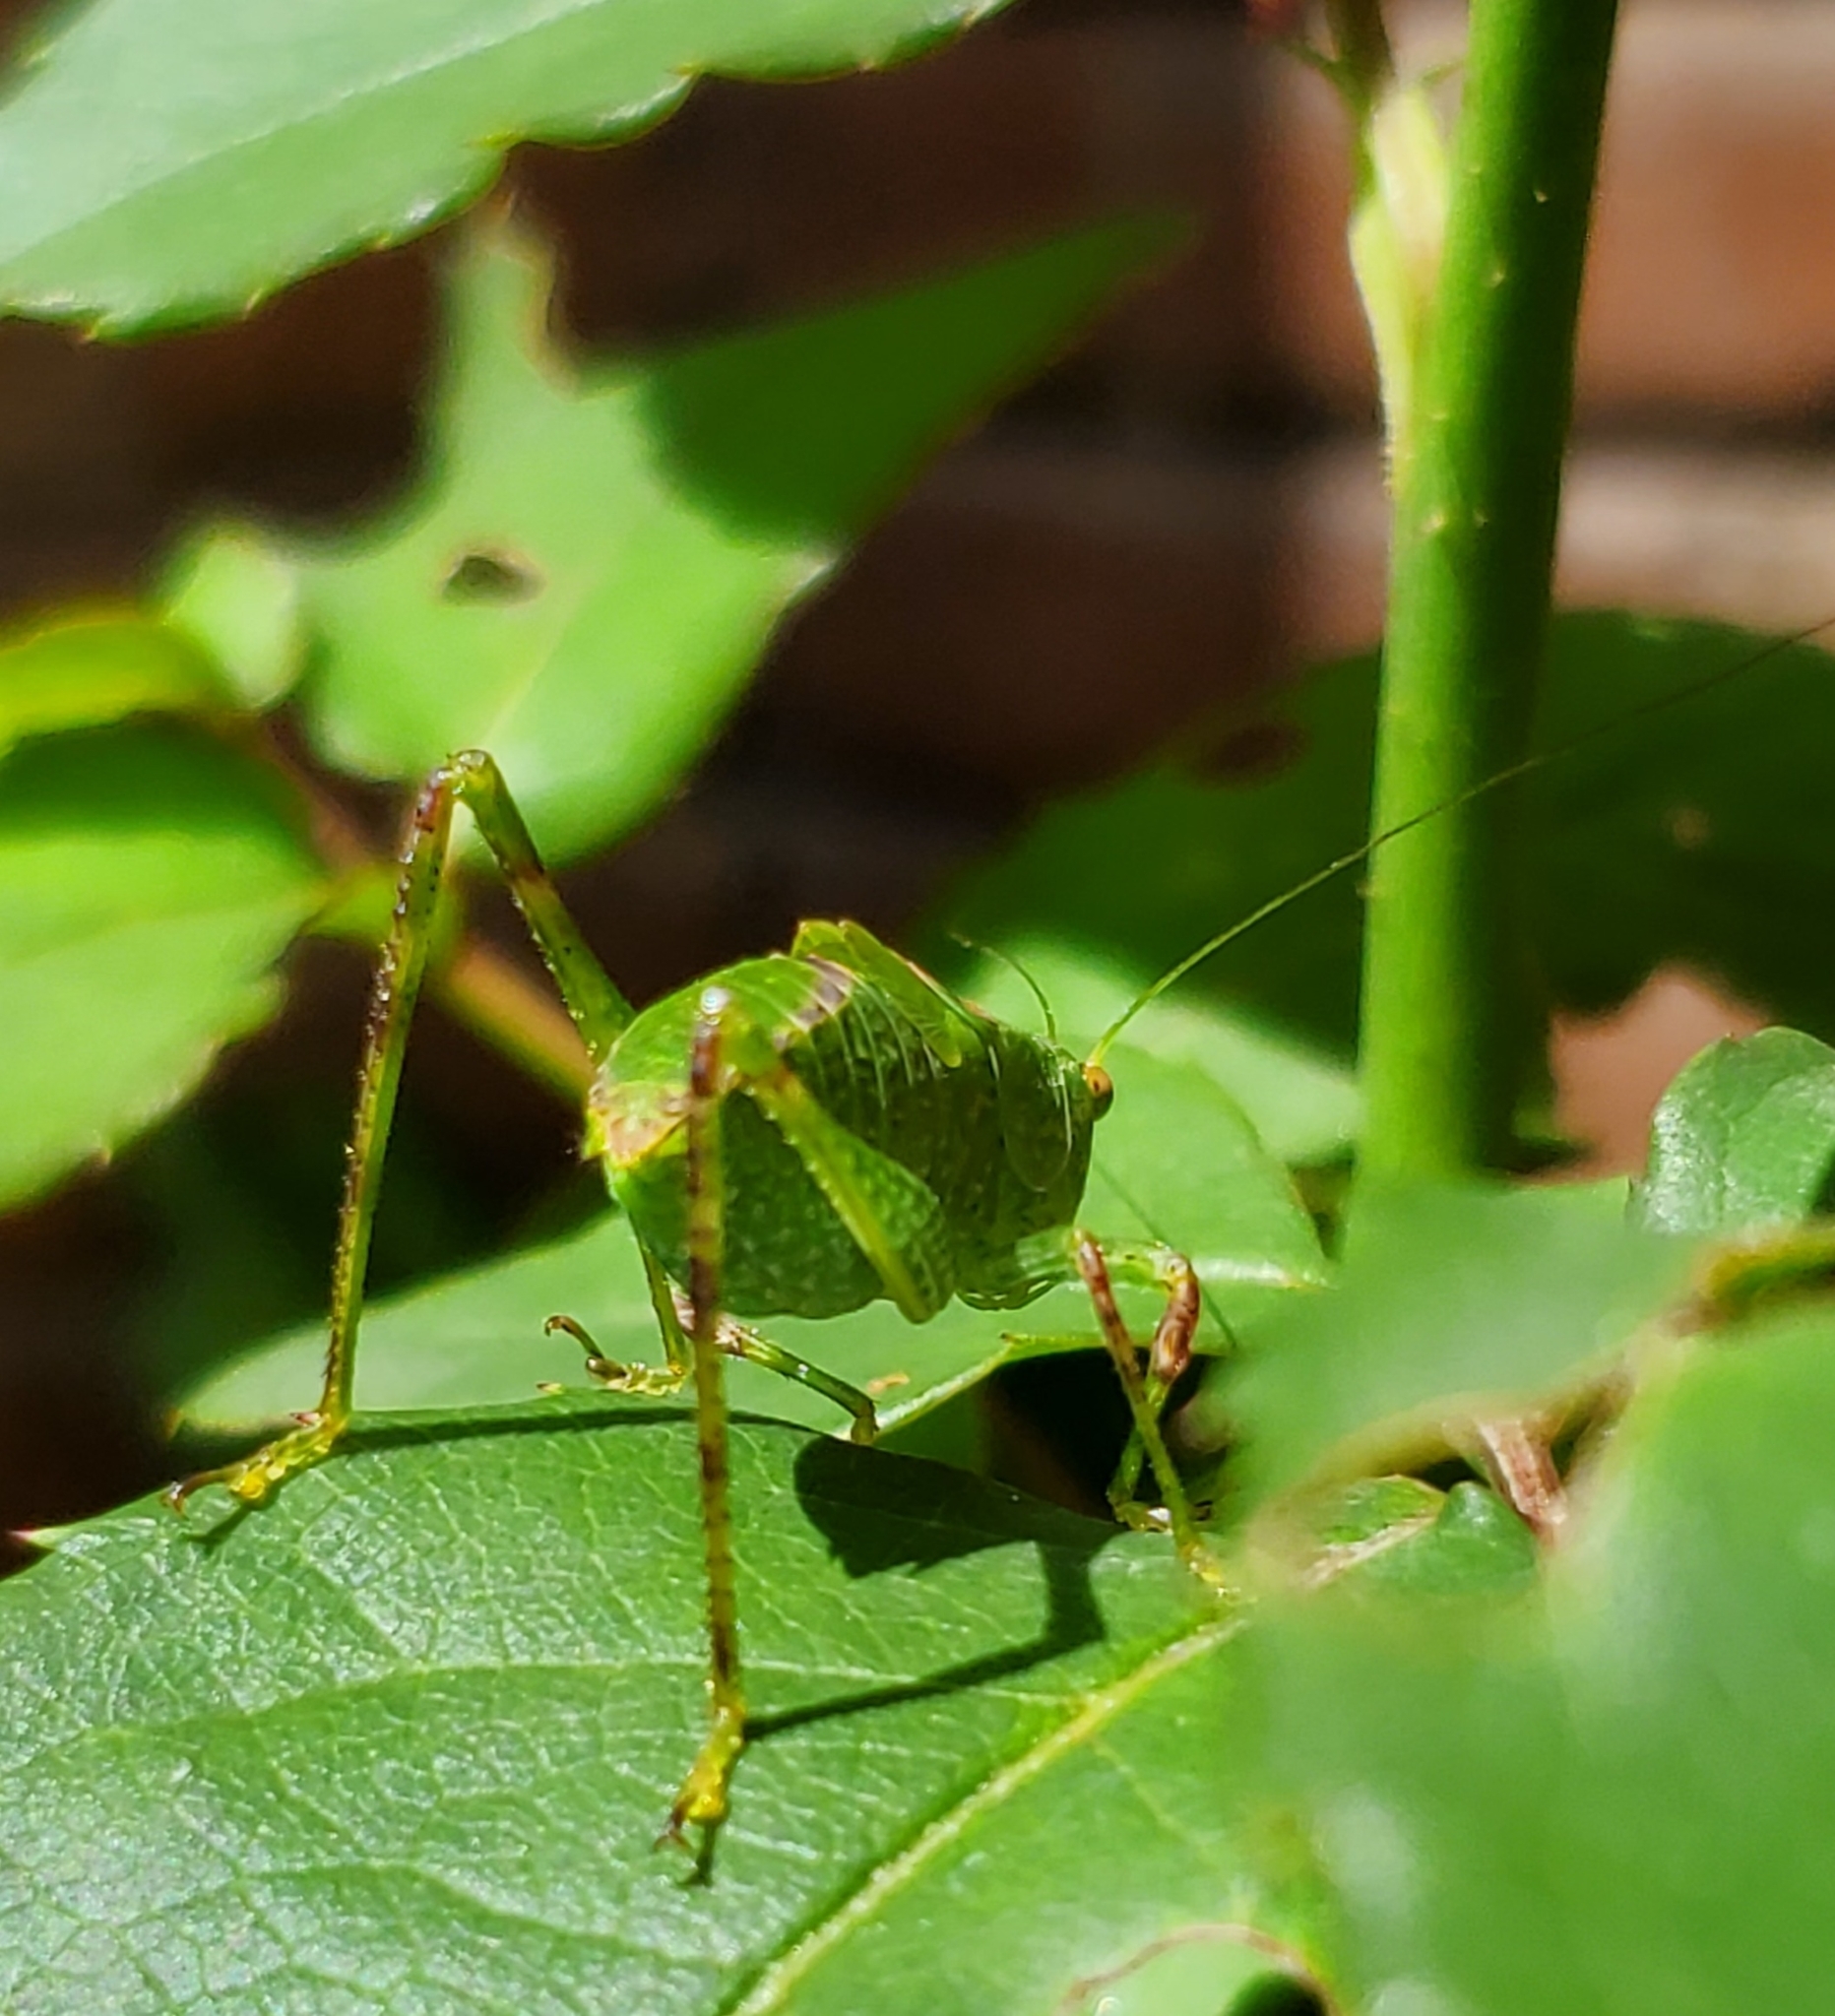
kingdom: Animalia
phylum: Arthropoda
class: Insecta
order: Orthoptera
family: Tettigoniidae
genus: Syntechna
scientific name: Syntechna tarasca
